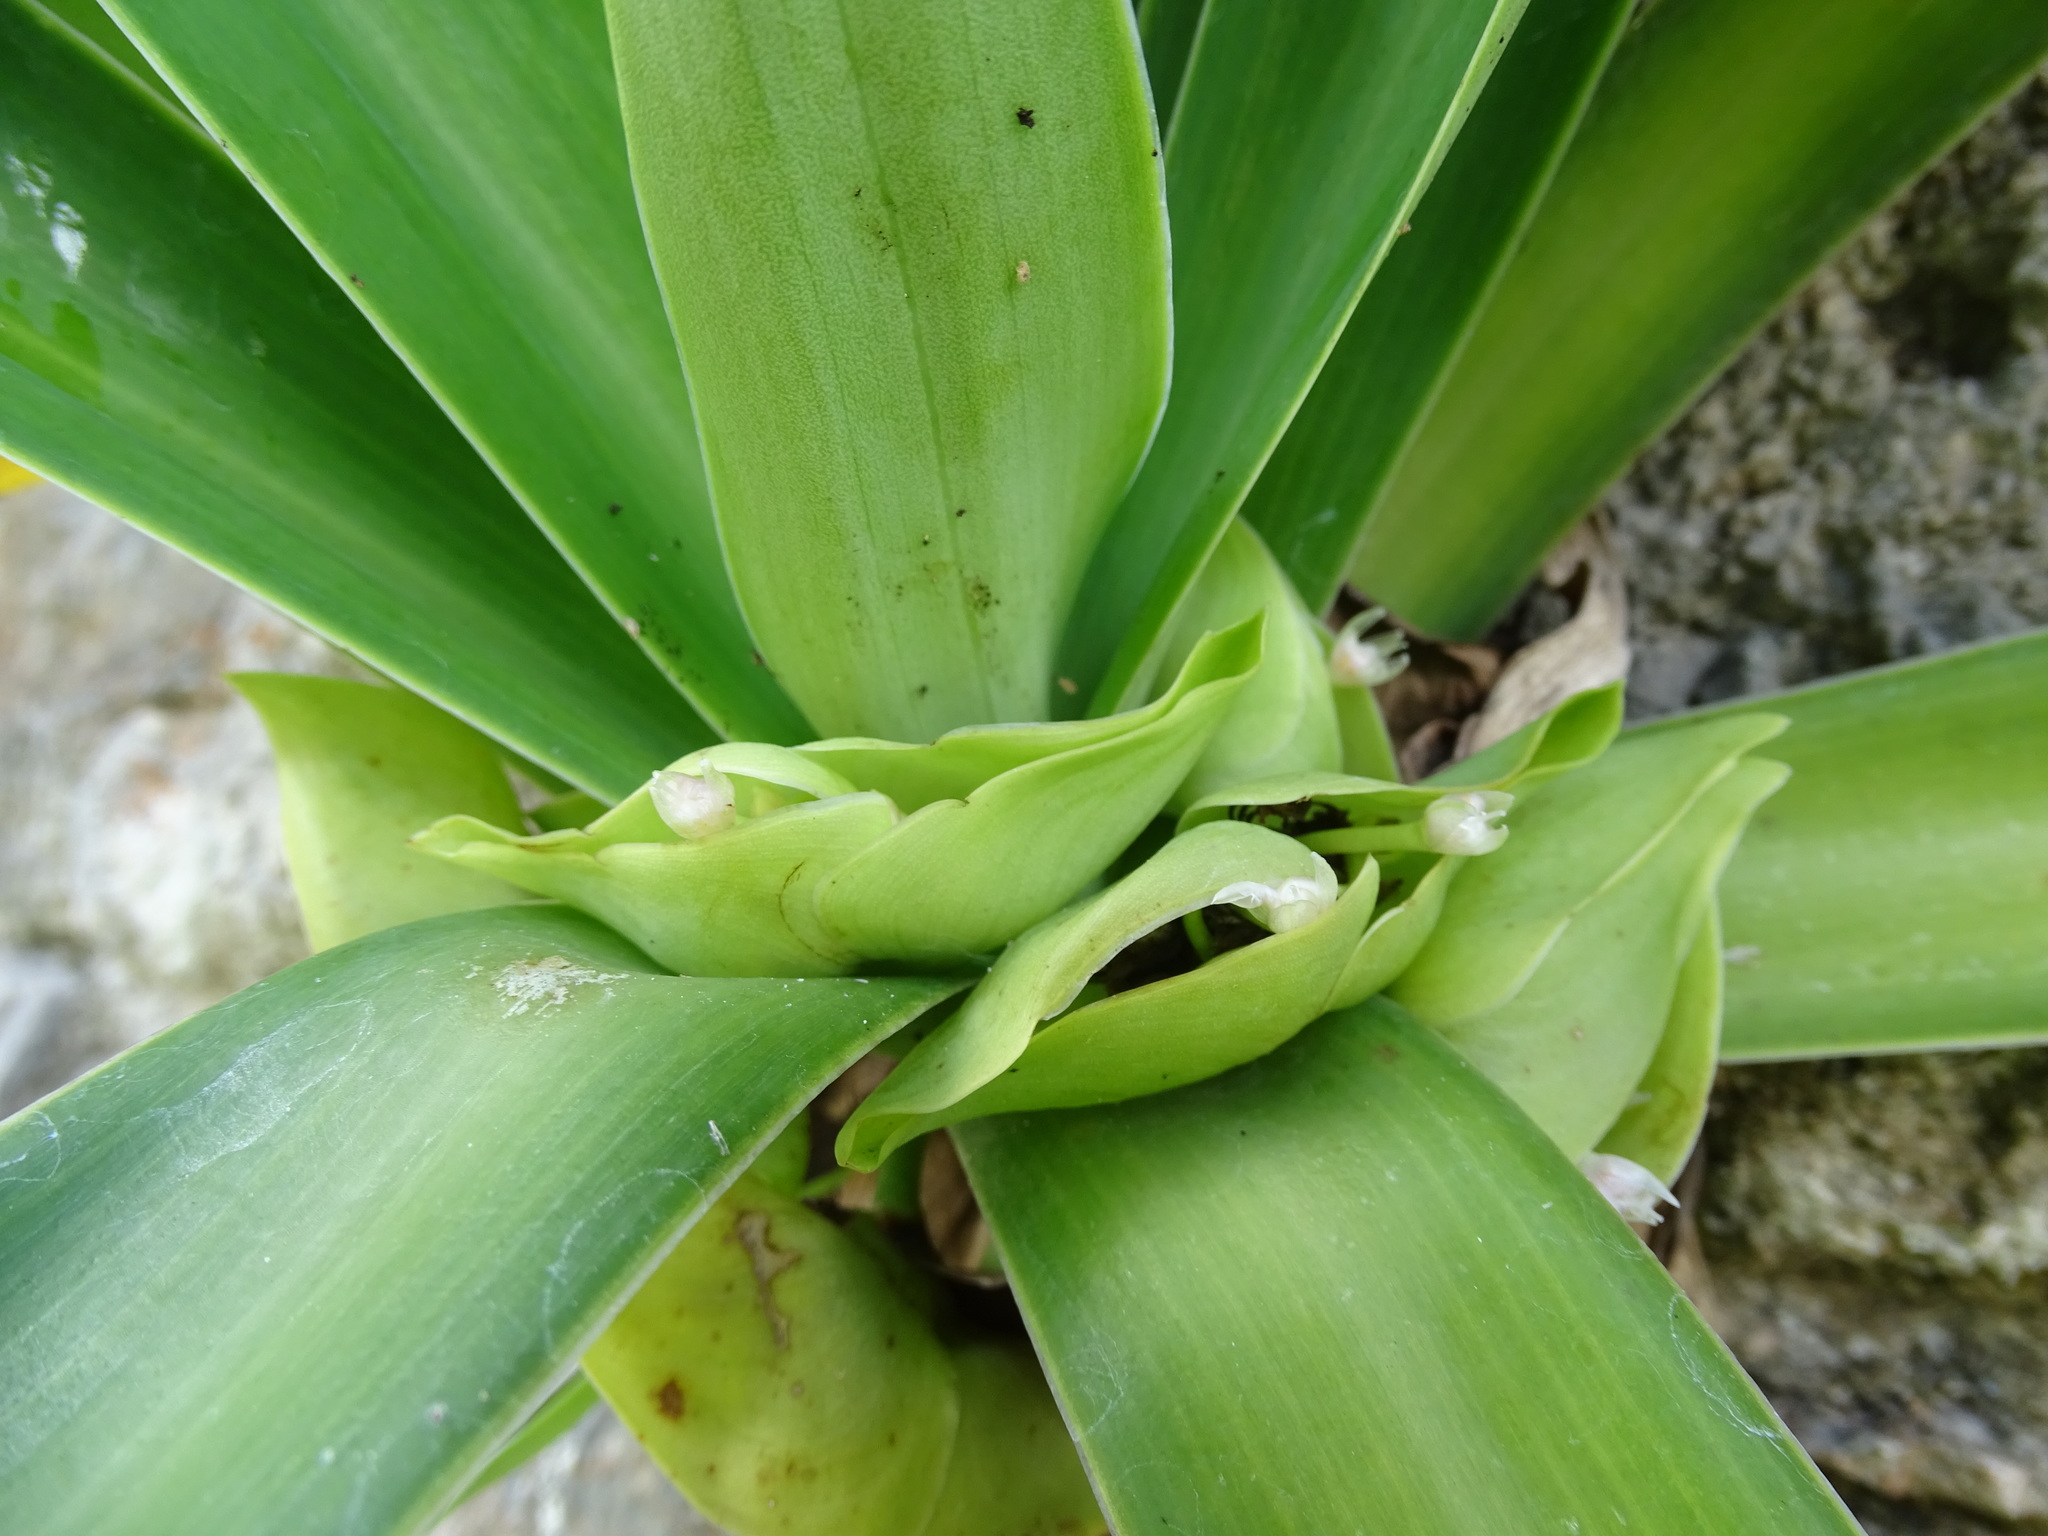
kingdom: Plantae
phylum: Tracheophyta
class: Liliopsida
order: Commelinales
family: Commelinaceae
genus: Tradescantia
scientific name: Tradescantia spathacea
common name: Boatlily
